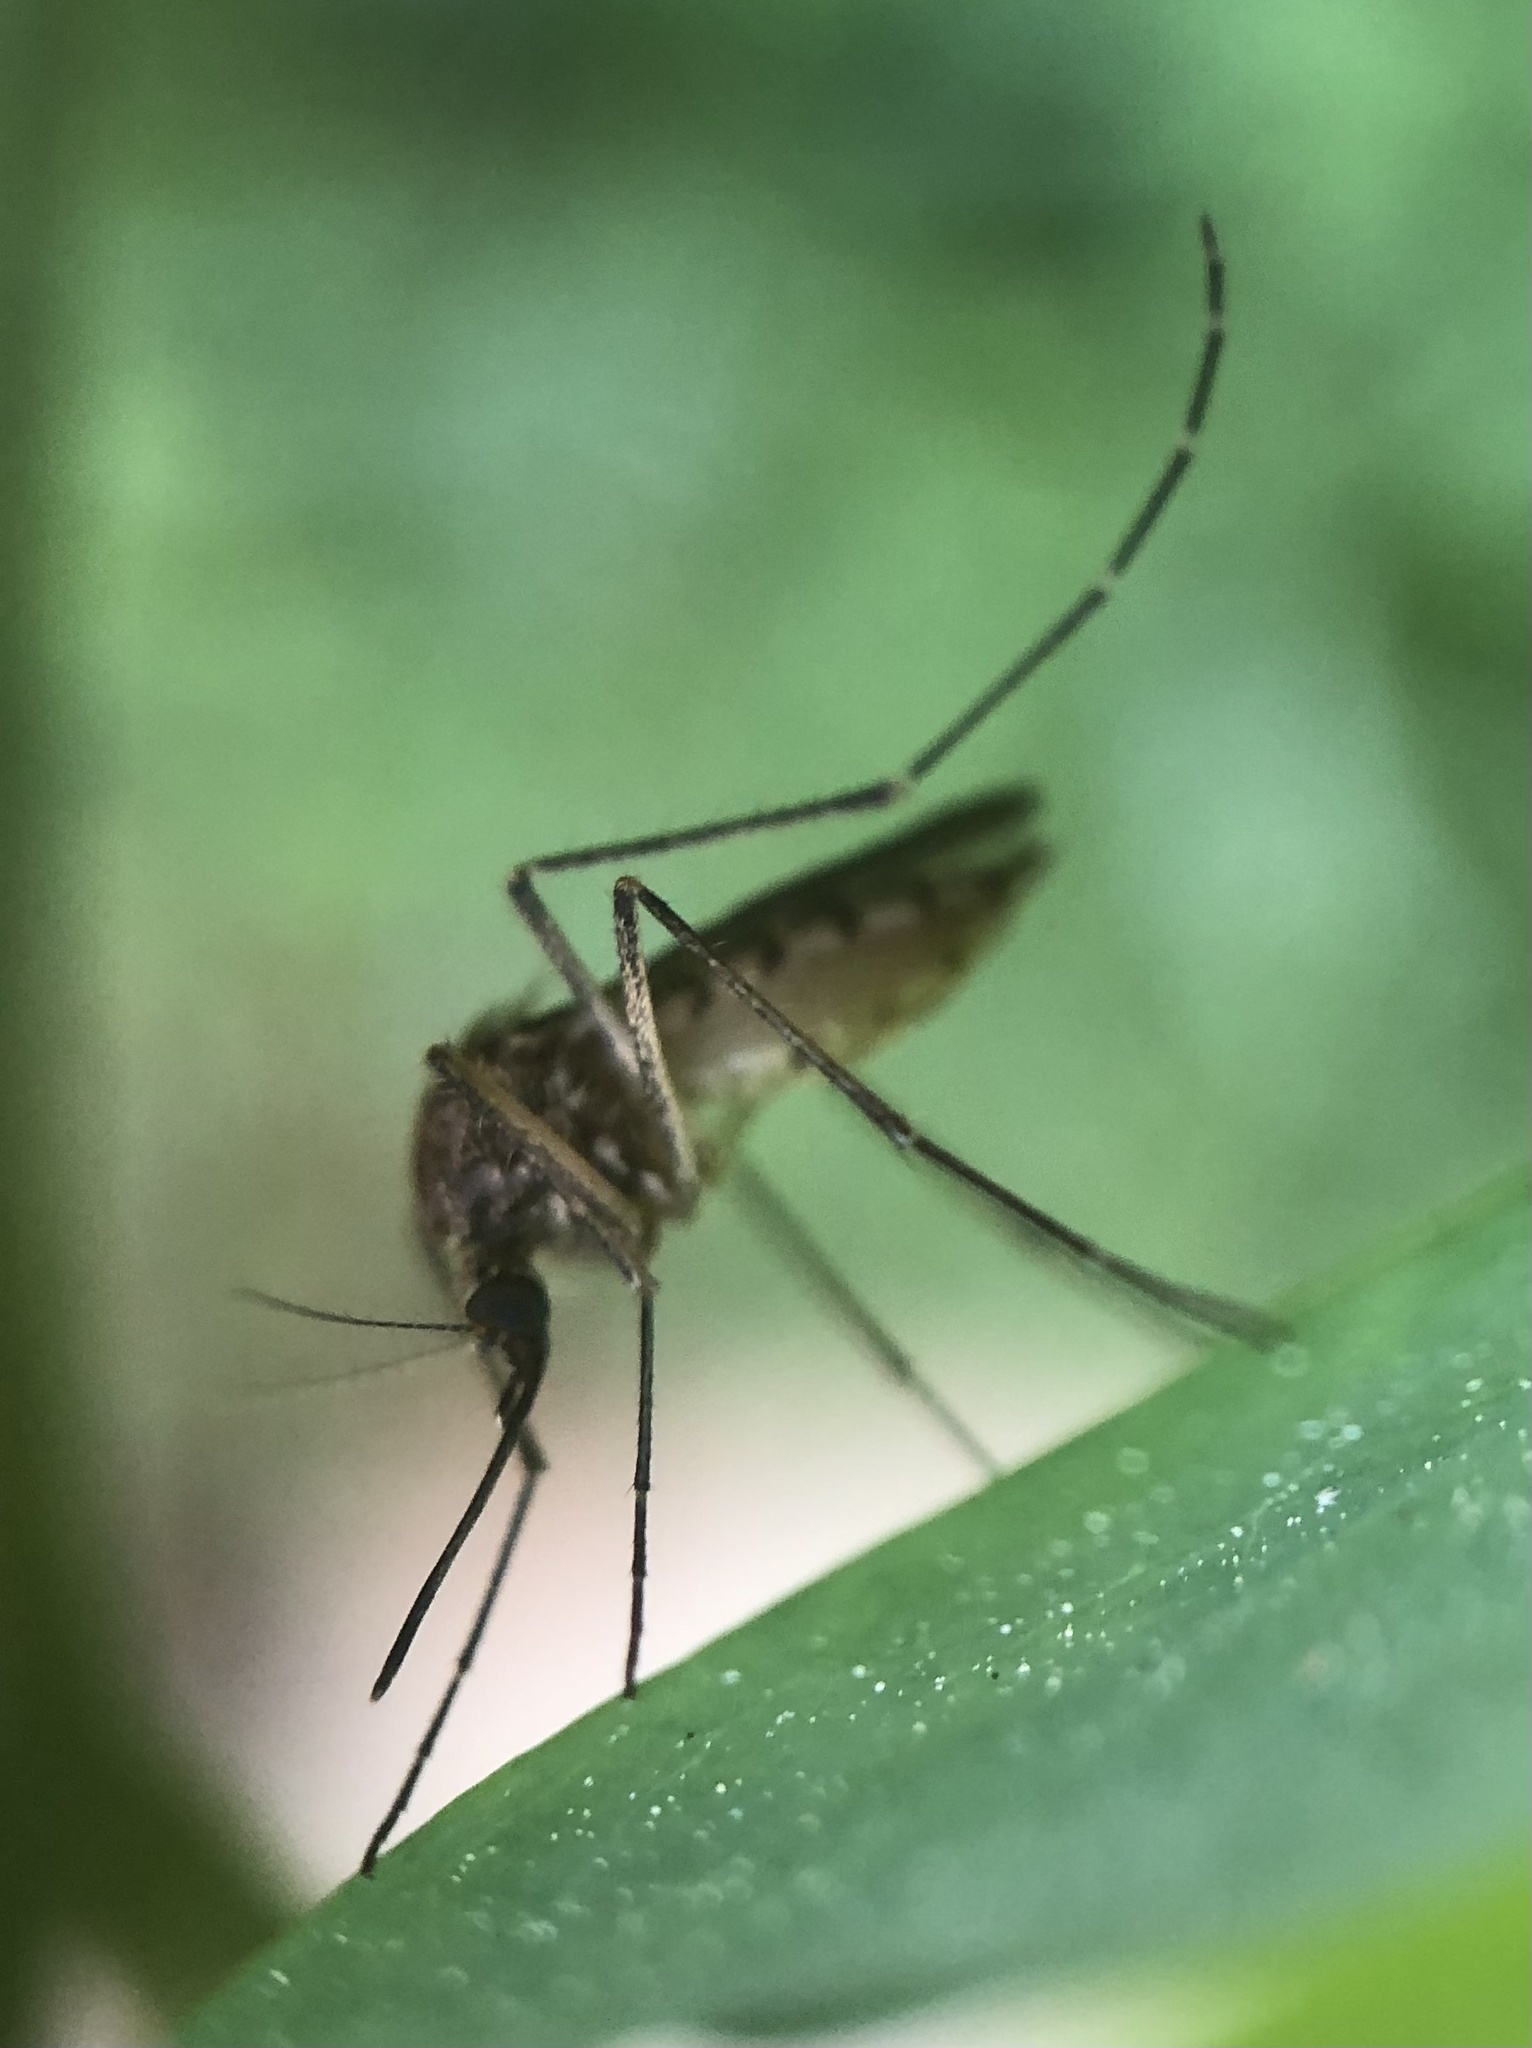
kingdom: Animalia
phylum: Arthropoda
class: Insecta
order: Diptera
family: Culicidae
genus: Aedes
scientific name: Aedes vexans
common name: Inland floodwater mosquito
